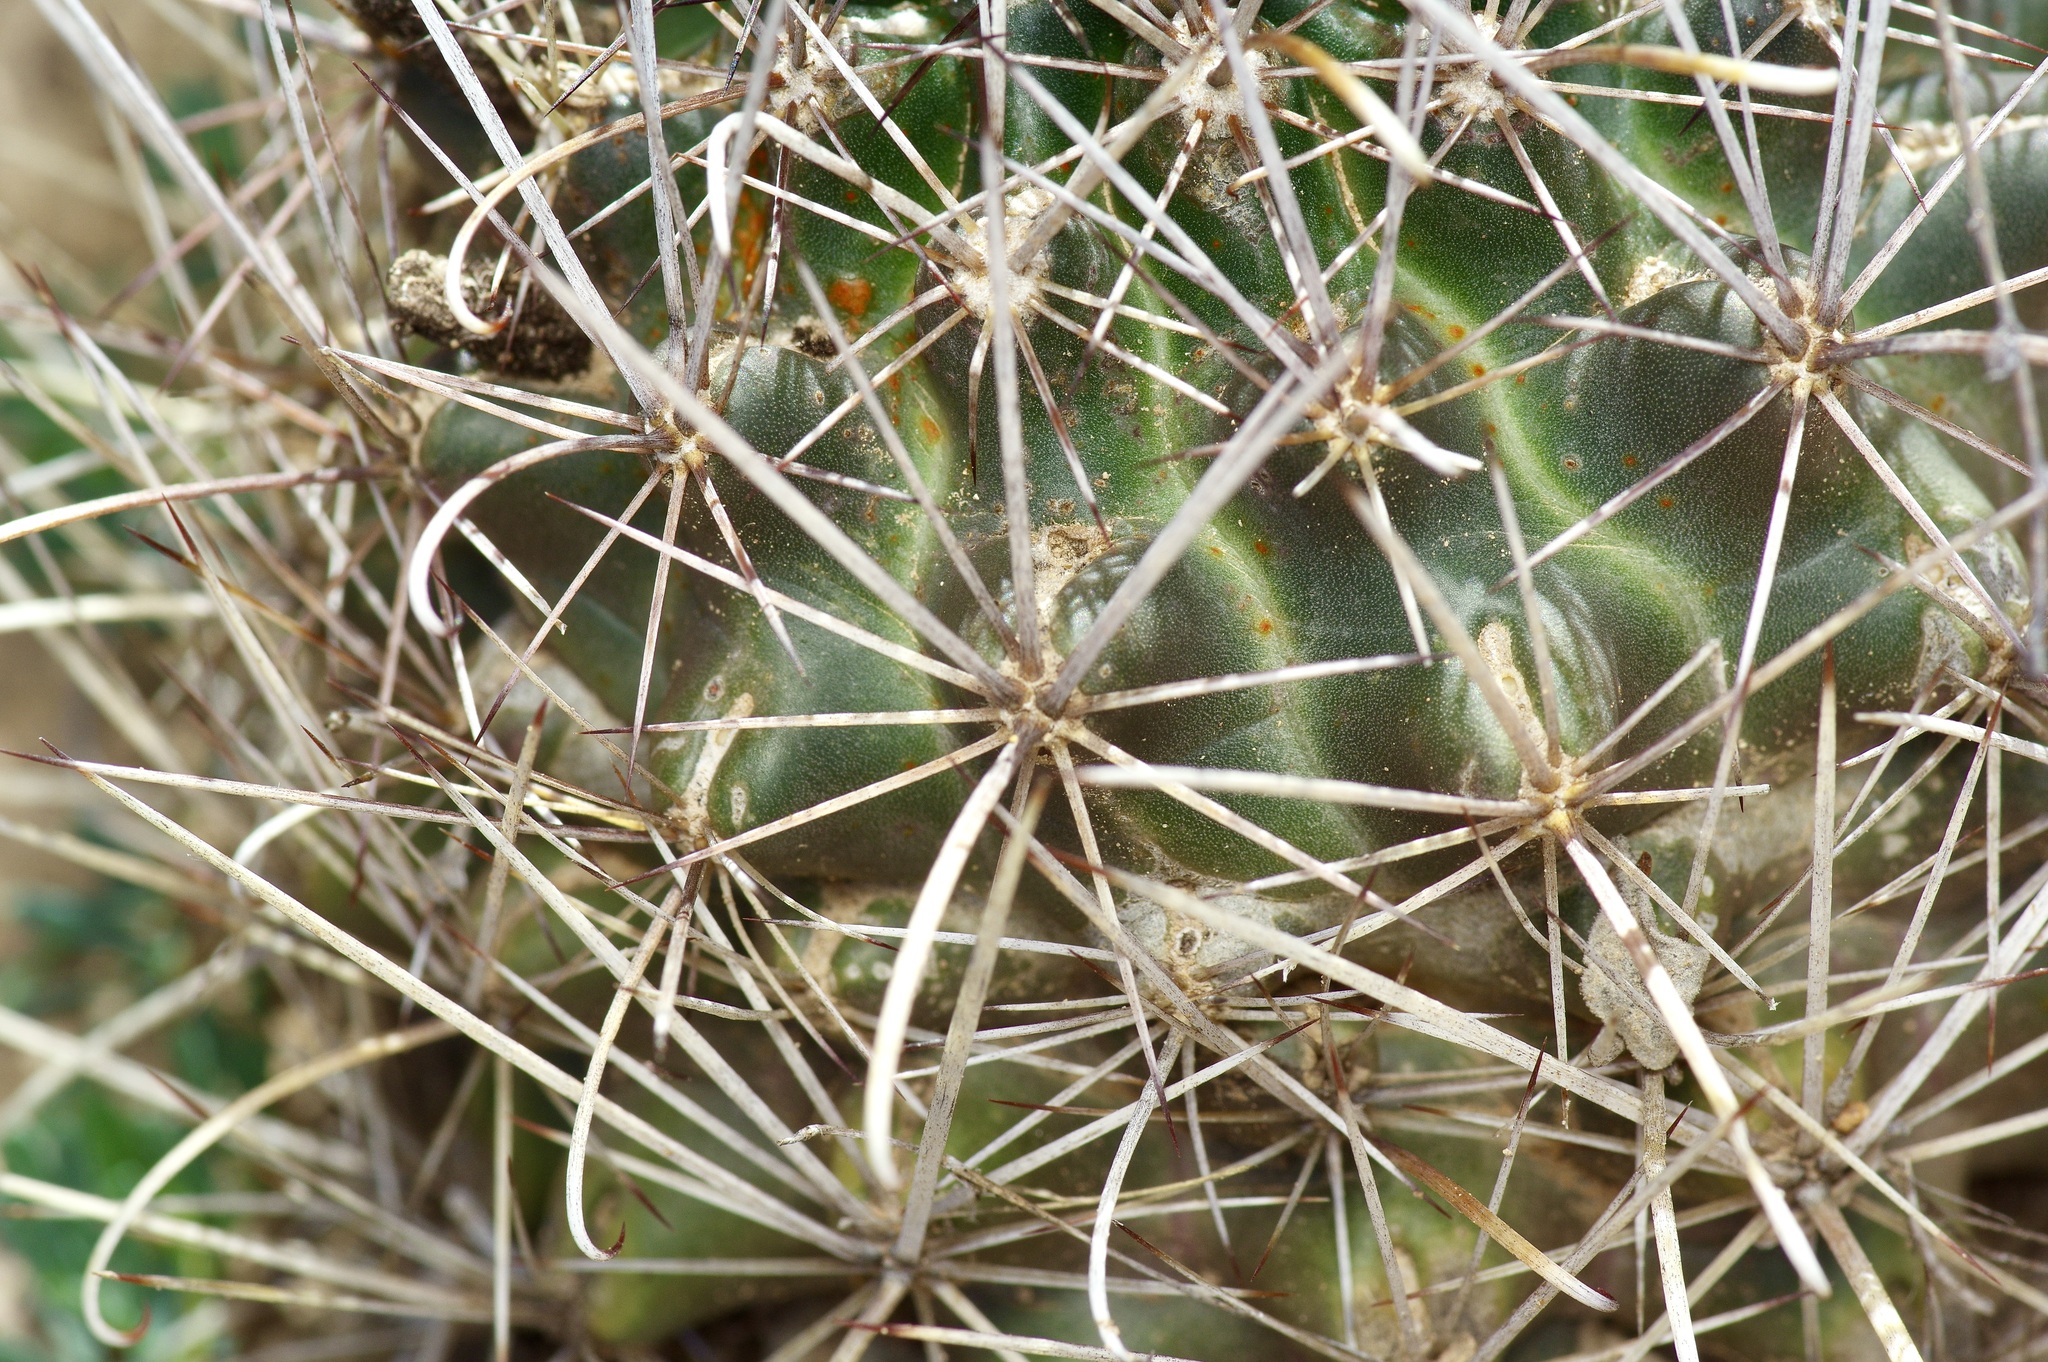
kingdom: Plantae
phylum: Tracheophyta
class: Magnoliopsida
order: Caryophyllales
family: Cactaceae
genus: Bisnaga
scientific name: Bisnaga hamatacantha
